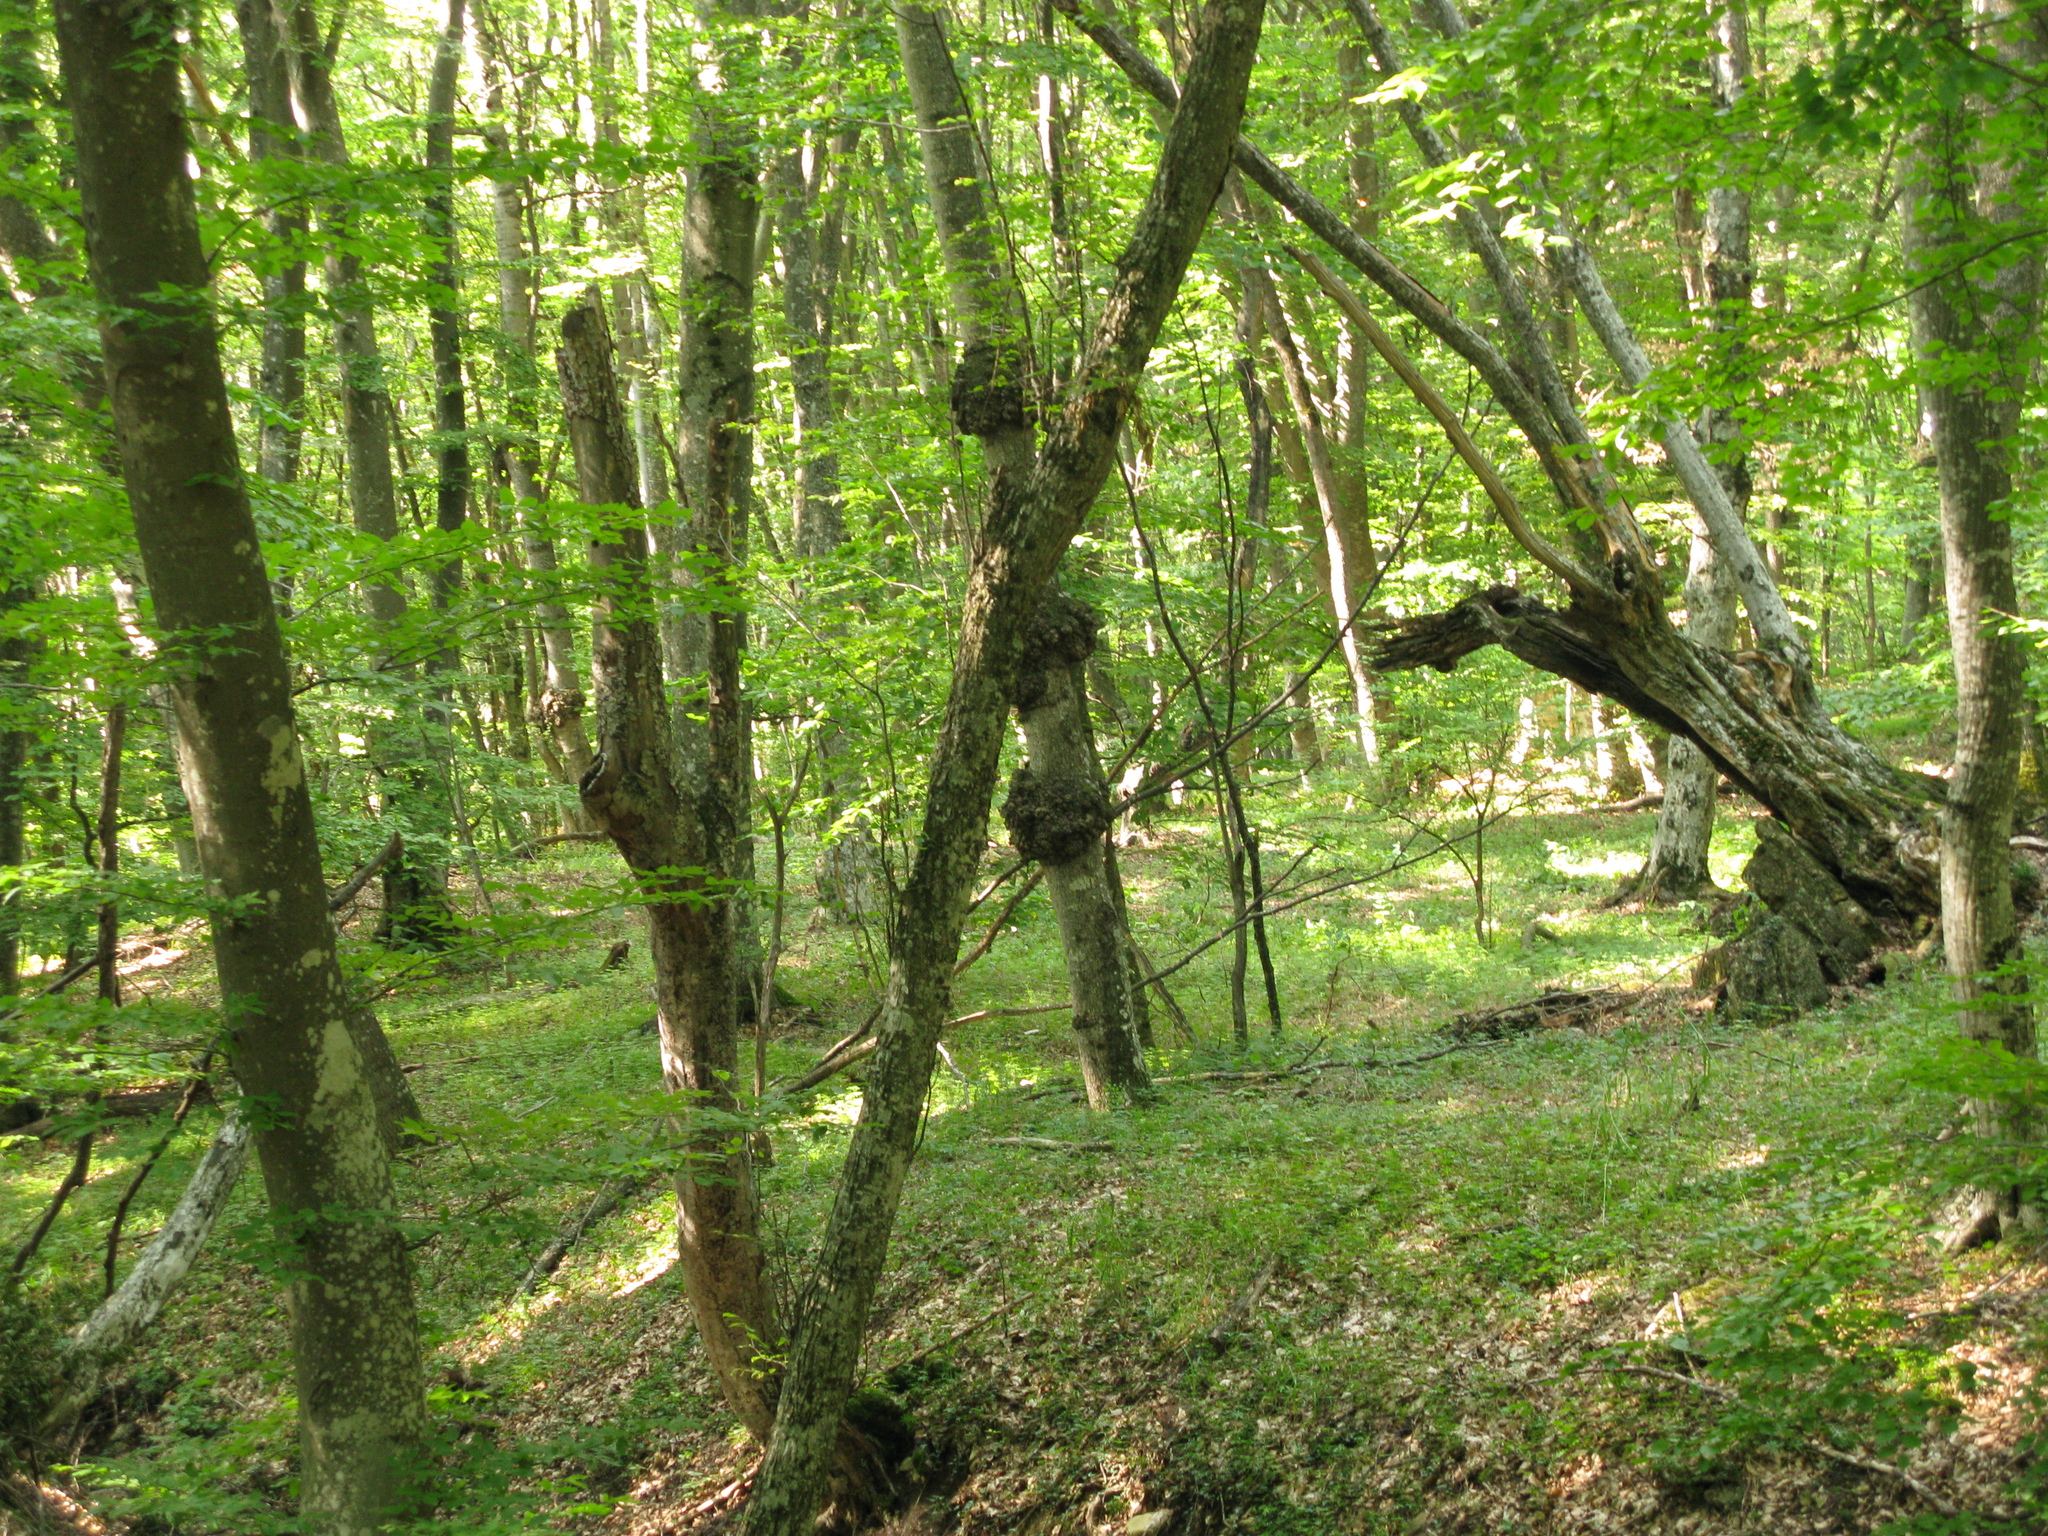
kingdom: Plantae
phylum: Tracheophyta
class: Magnoliopsida
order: Fagales
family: Fagaceae
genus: Fagus
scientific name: Fagus taurica
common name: Crimean beech
